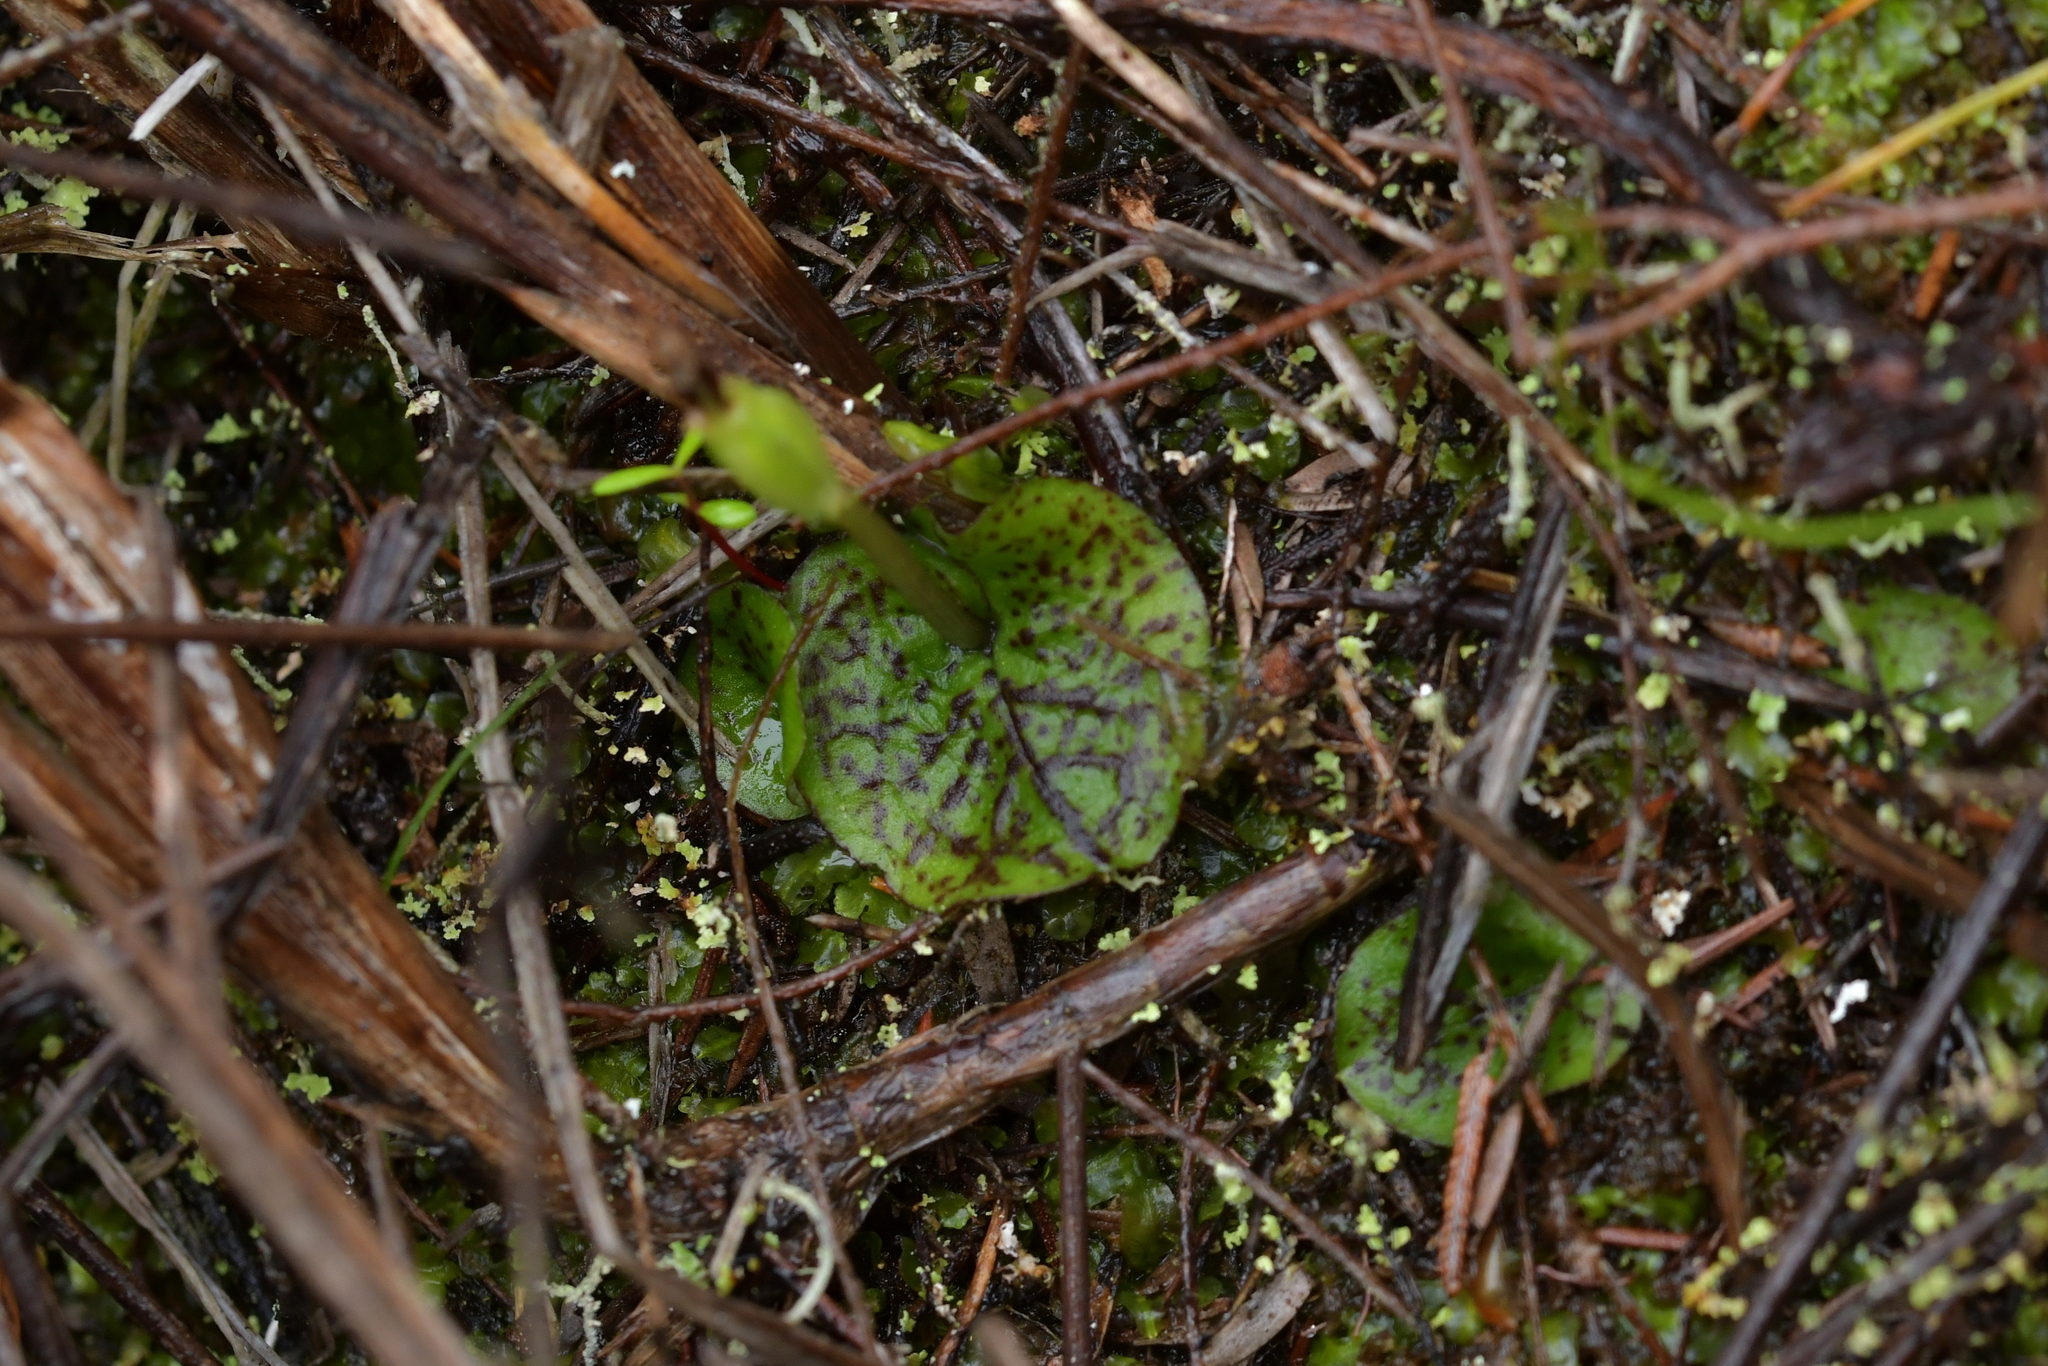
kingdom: Plantae
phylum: Tracheophyta
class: Liliopsida
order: Asparagales
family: Orchidaceae
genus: Corybas
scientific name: Corybas oblongus
